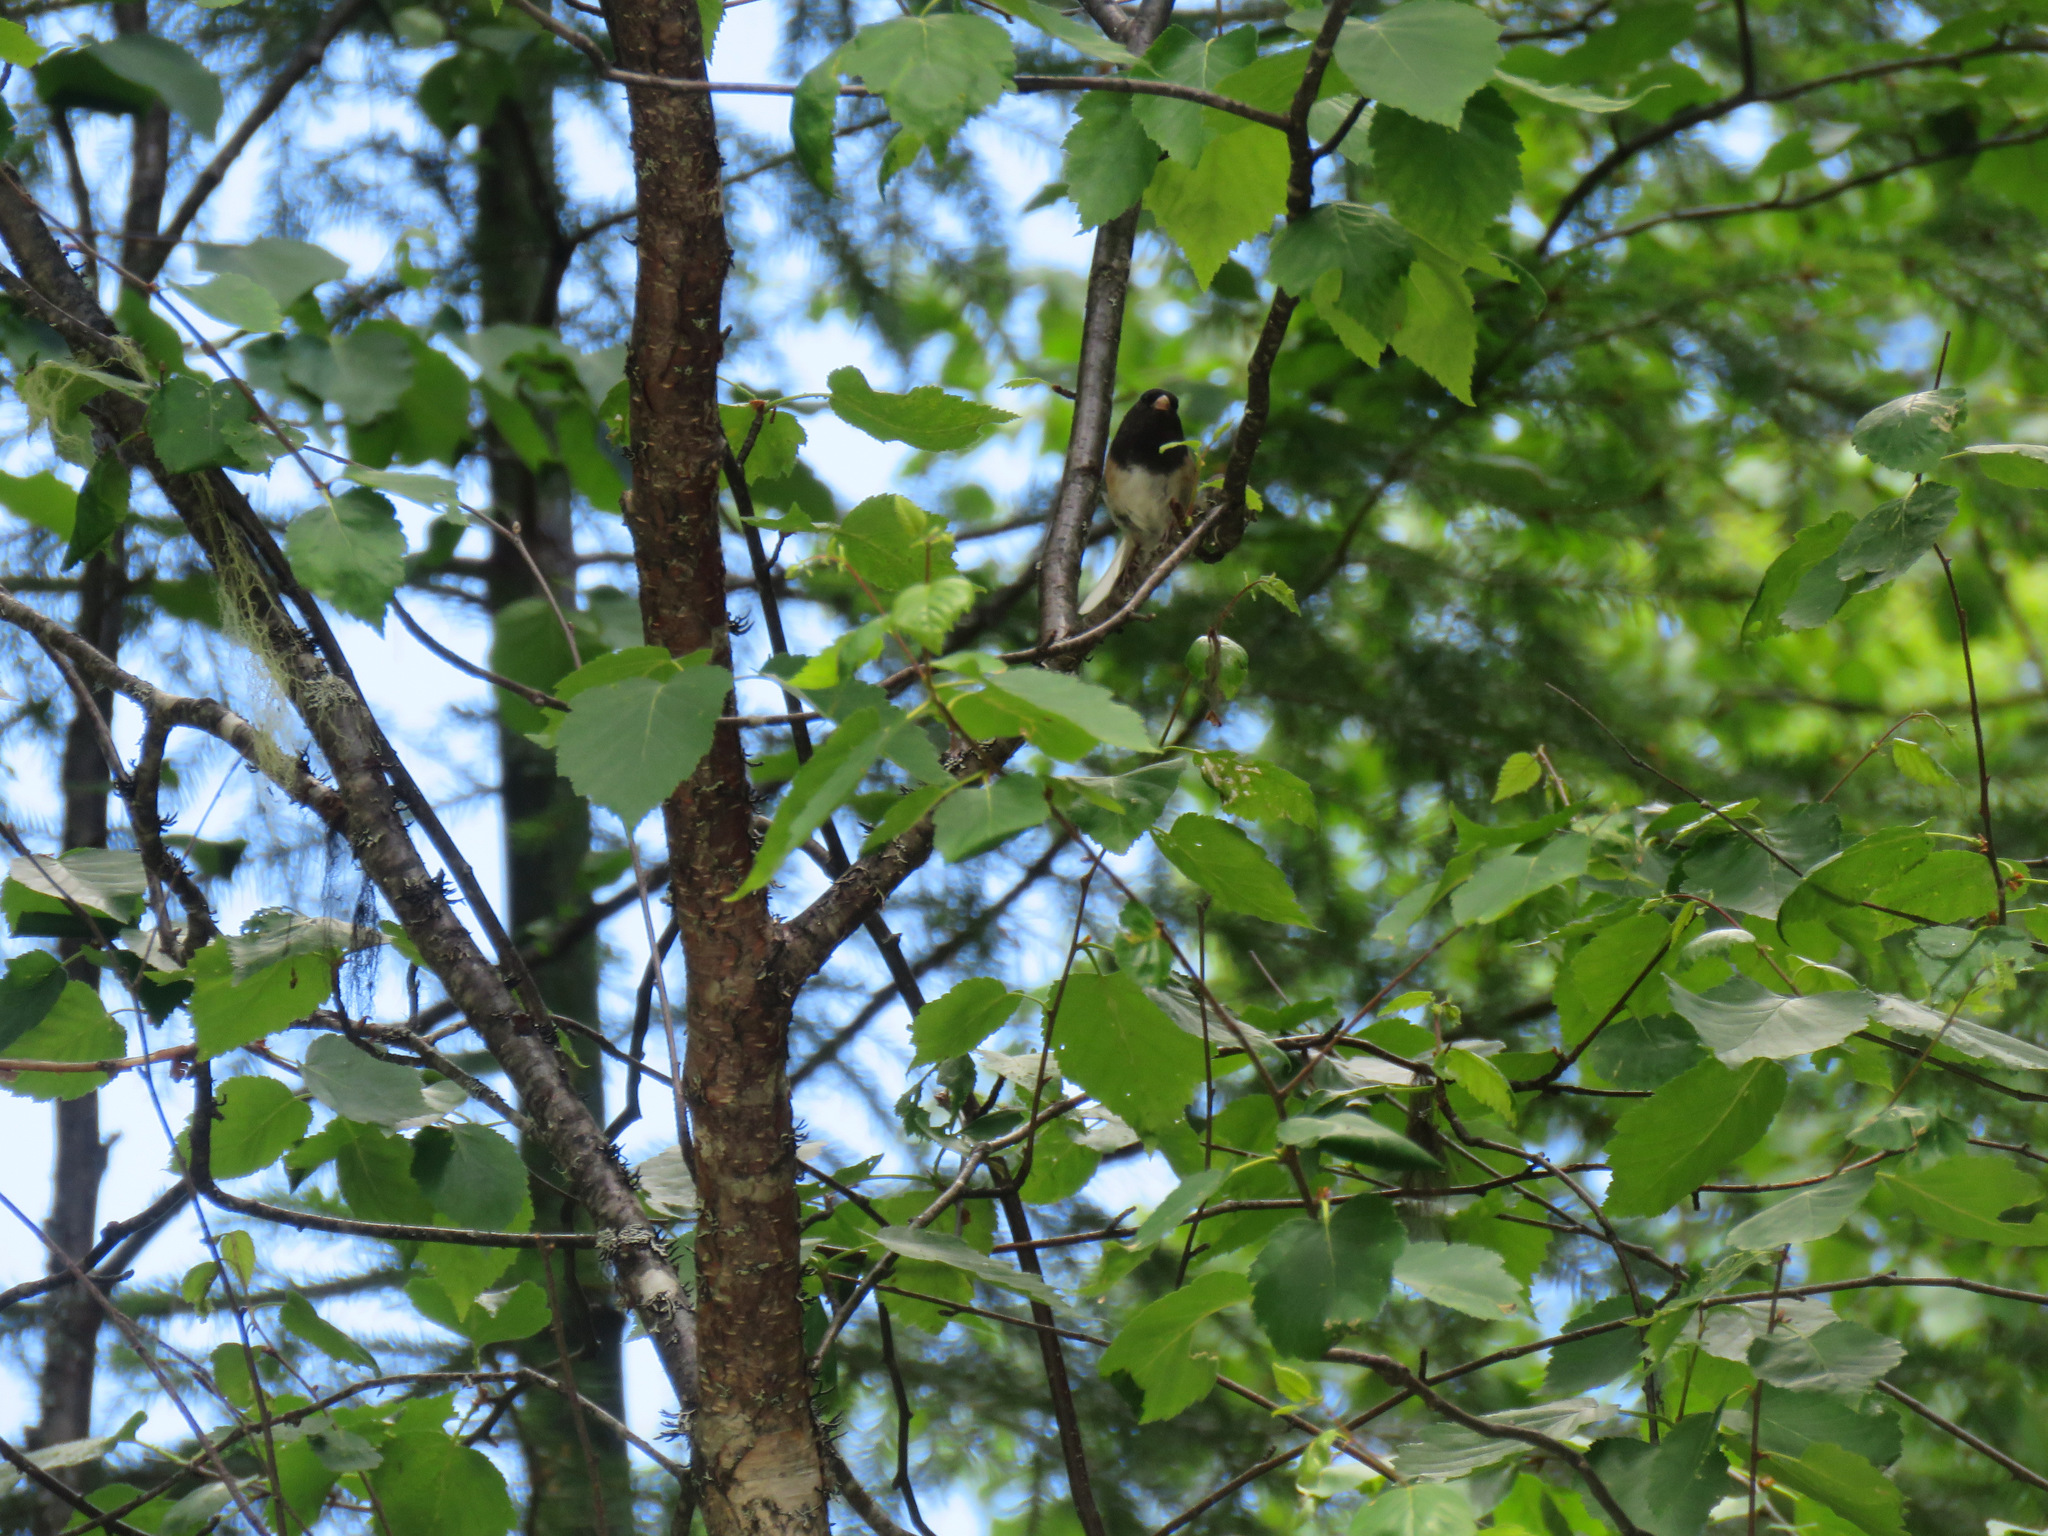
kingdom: Animalia
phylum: Chordata
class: Aves
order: Passeriformes
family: Passerellidae
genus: Junco
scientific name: Junco hyemalis
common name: Dark-eyed junco
